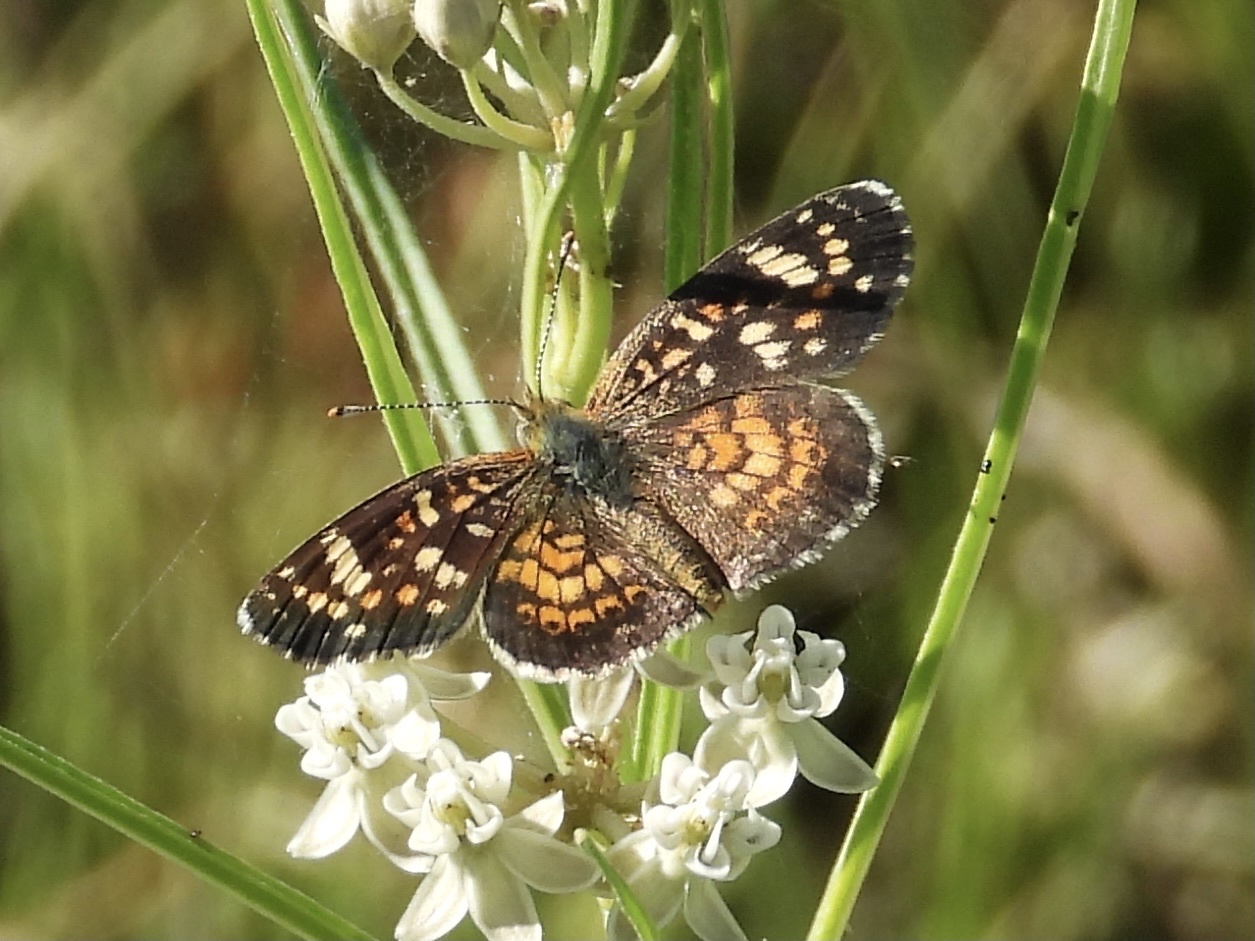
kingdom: Animalia
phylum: Arthropoda
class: Insecta
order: Lepidoptera
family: Nymphalidae
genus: Phyciodes
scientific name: Phyciodes picta
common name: Painted crescent
